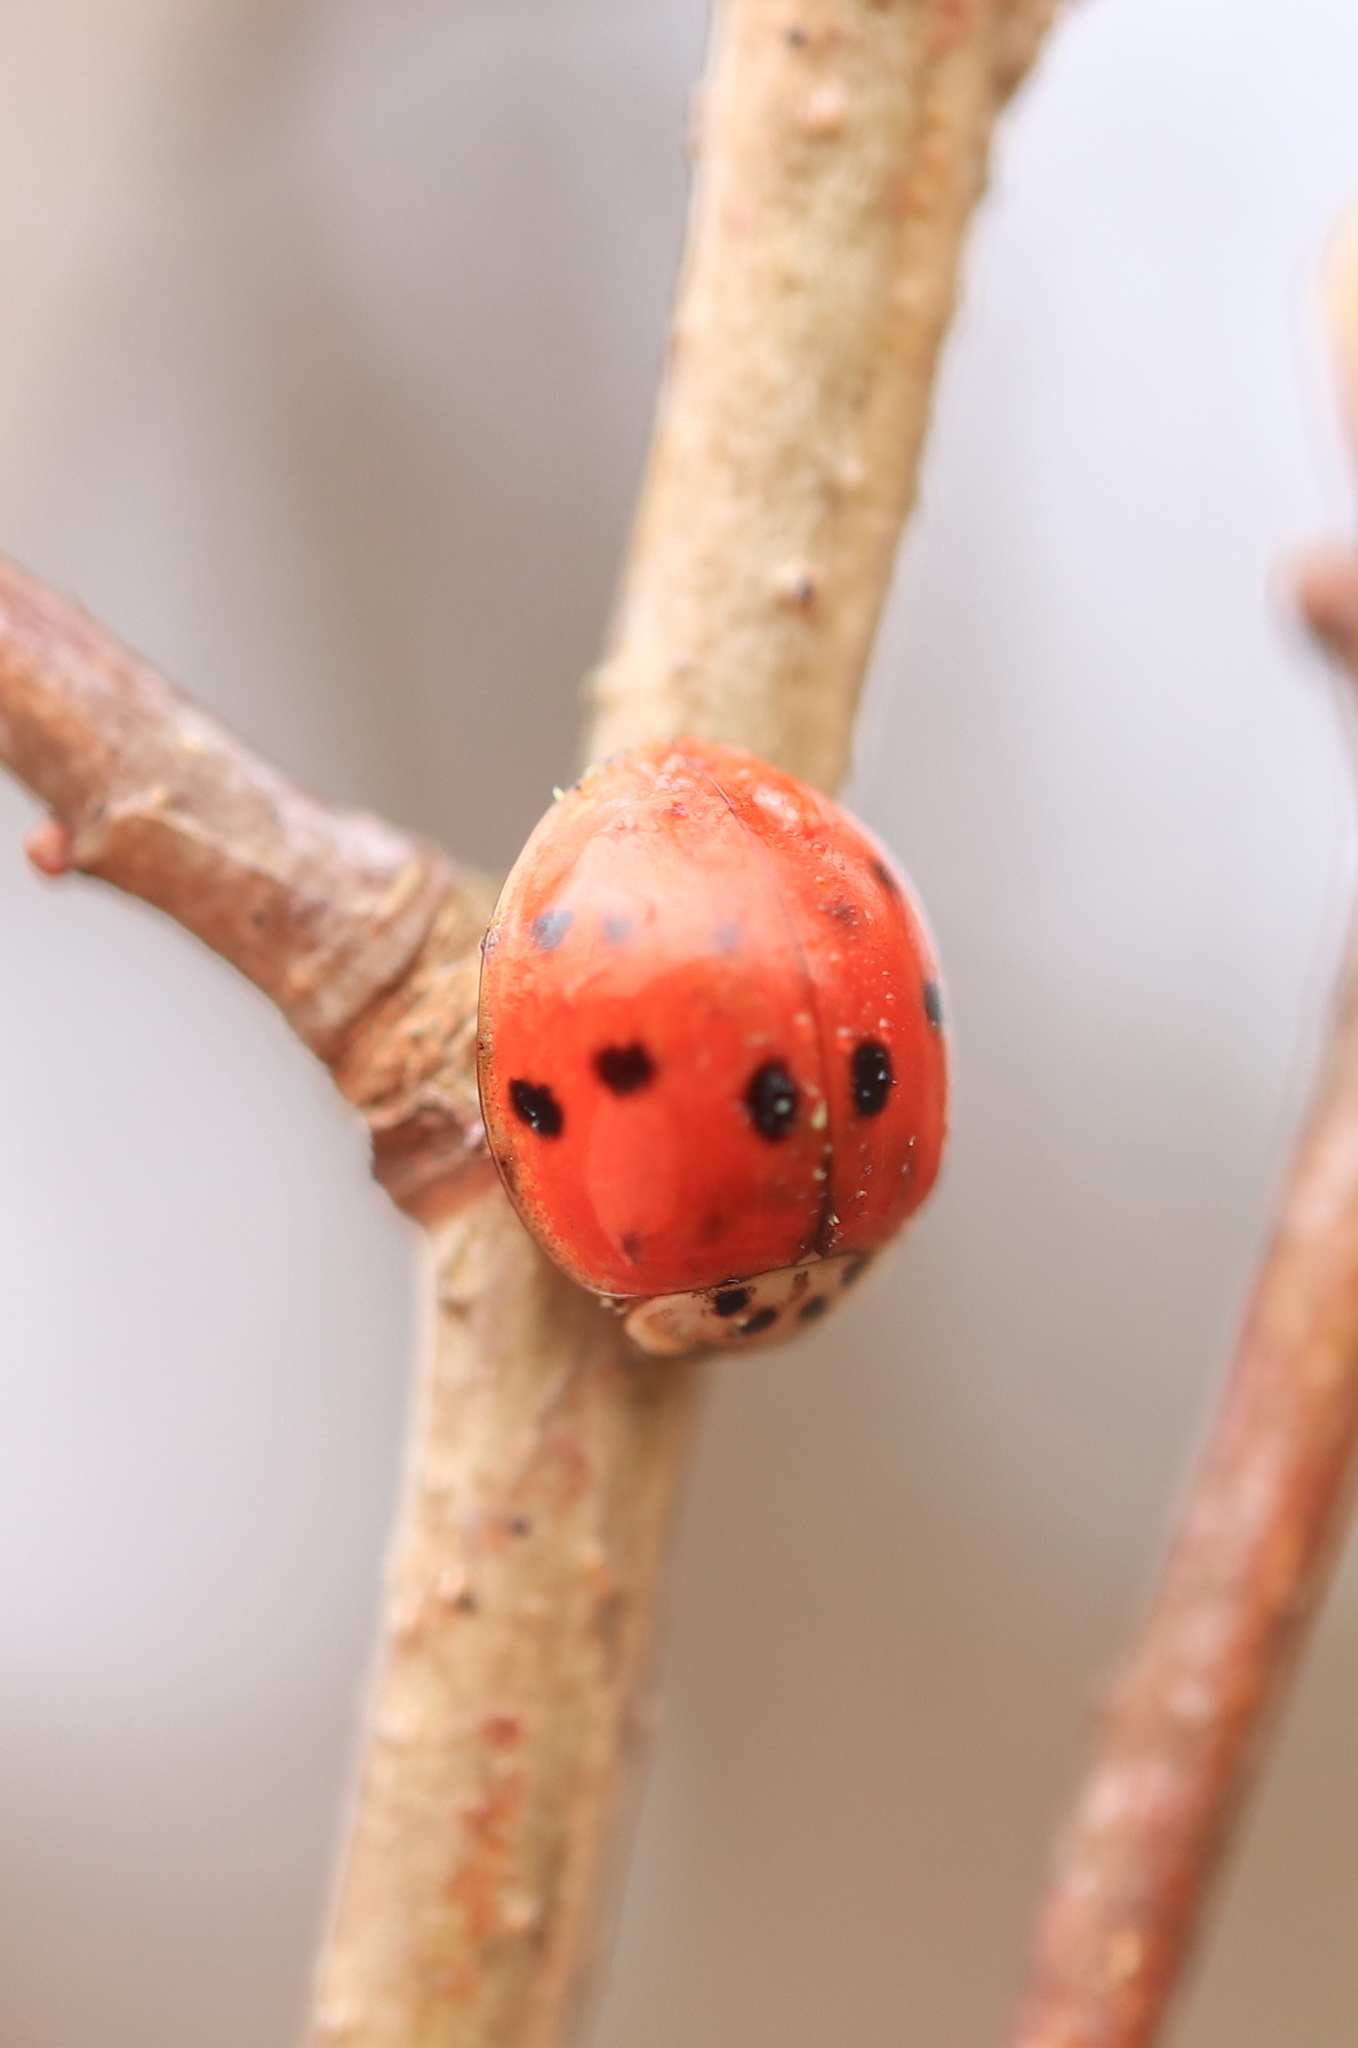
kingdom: Animalia
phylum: Arthropoda
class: Insecta
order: Coleoptera
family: Coccinellidae
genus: Harmonia
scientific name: Harmonia axyridis
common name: Harlequin ladybird
